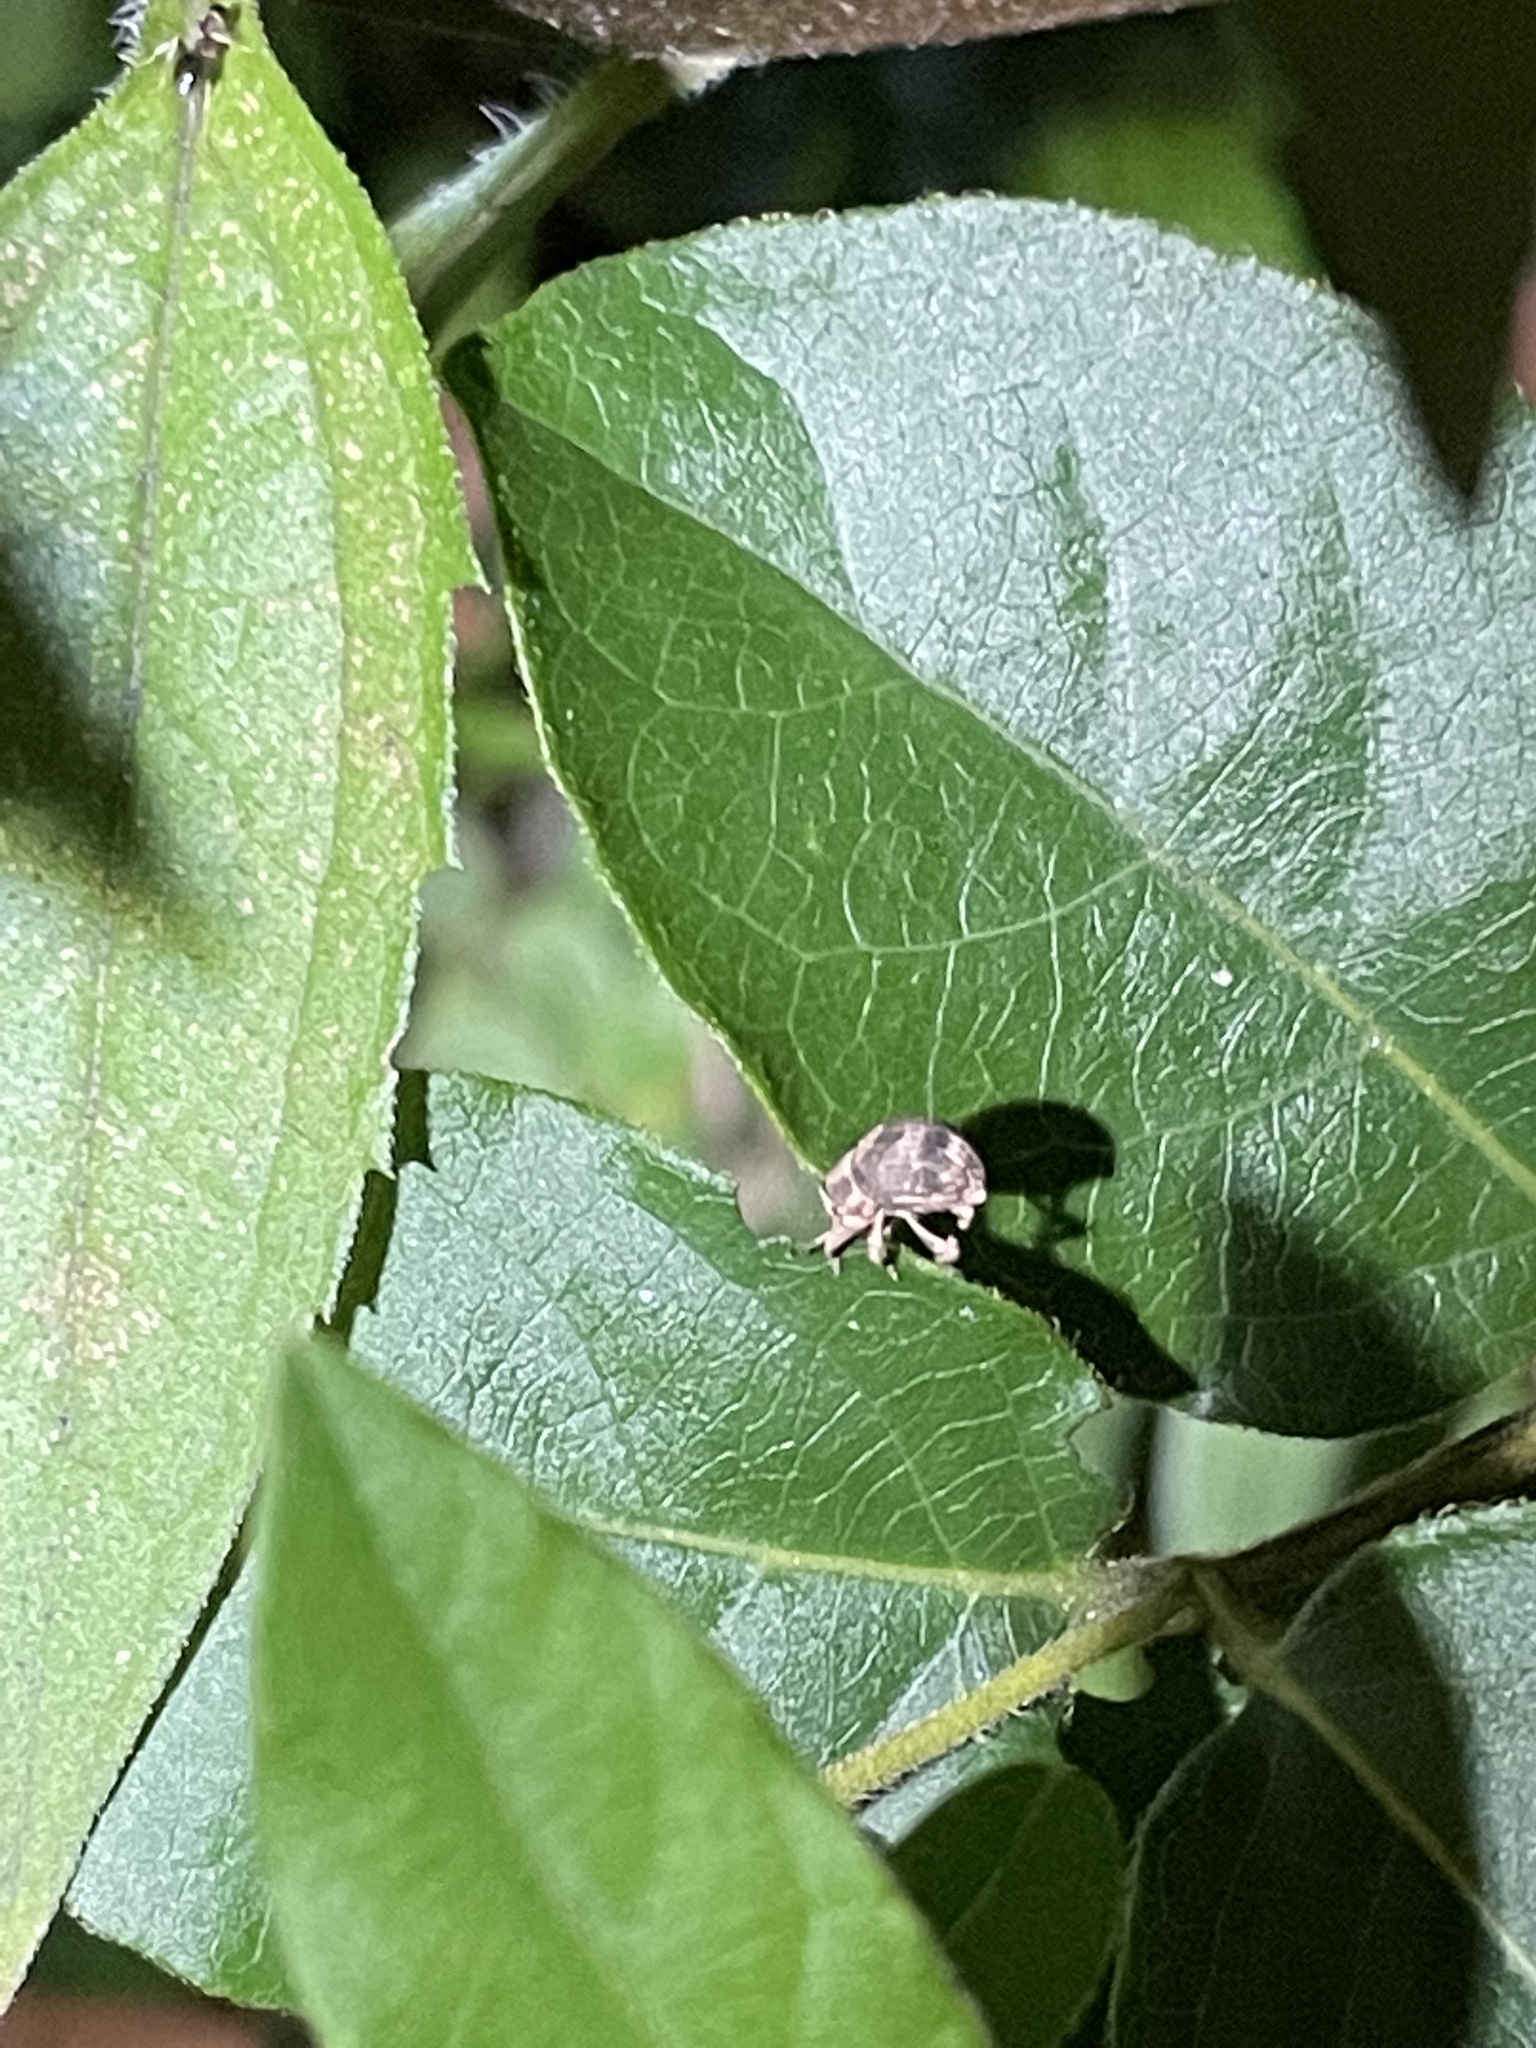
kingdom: Animalia
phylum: Arthropoda
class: Insecta
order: Coleoptera
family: Curculionidae
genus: Pseudocneorhinus
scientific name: Pseudocneorhinus bifasciatus
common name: Two-banded japanese weevil
